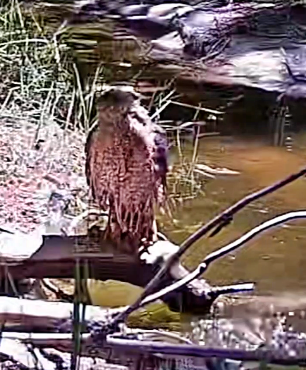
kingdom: Animalia
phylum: Chordata
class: Aves
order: Accipitriformes
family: Accipitridae
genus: Accipiter
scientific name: Accipiter cooperii
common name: Cooper's hawk
